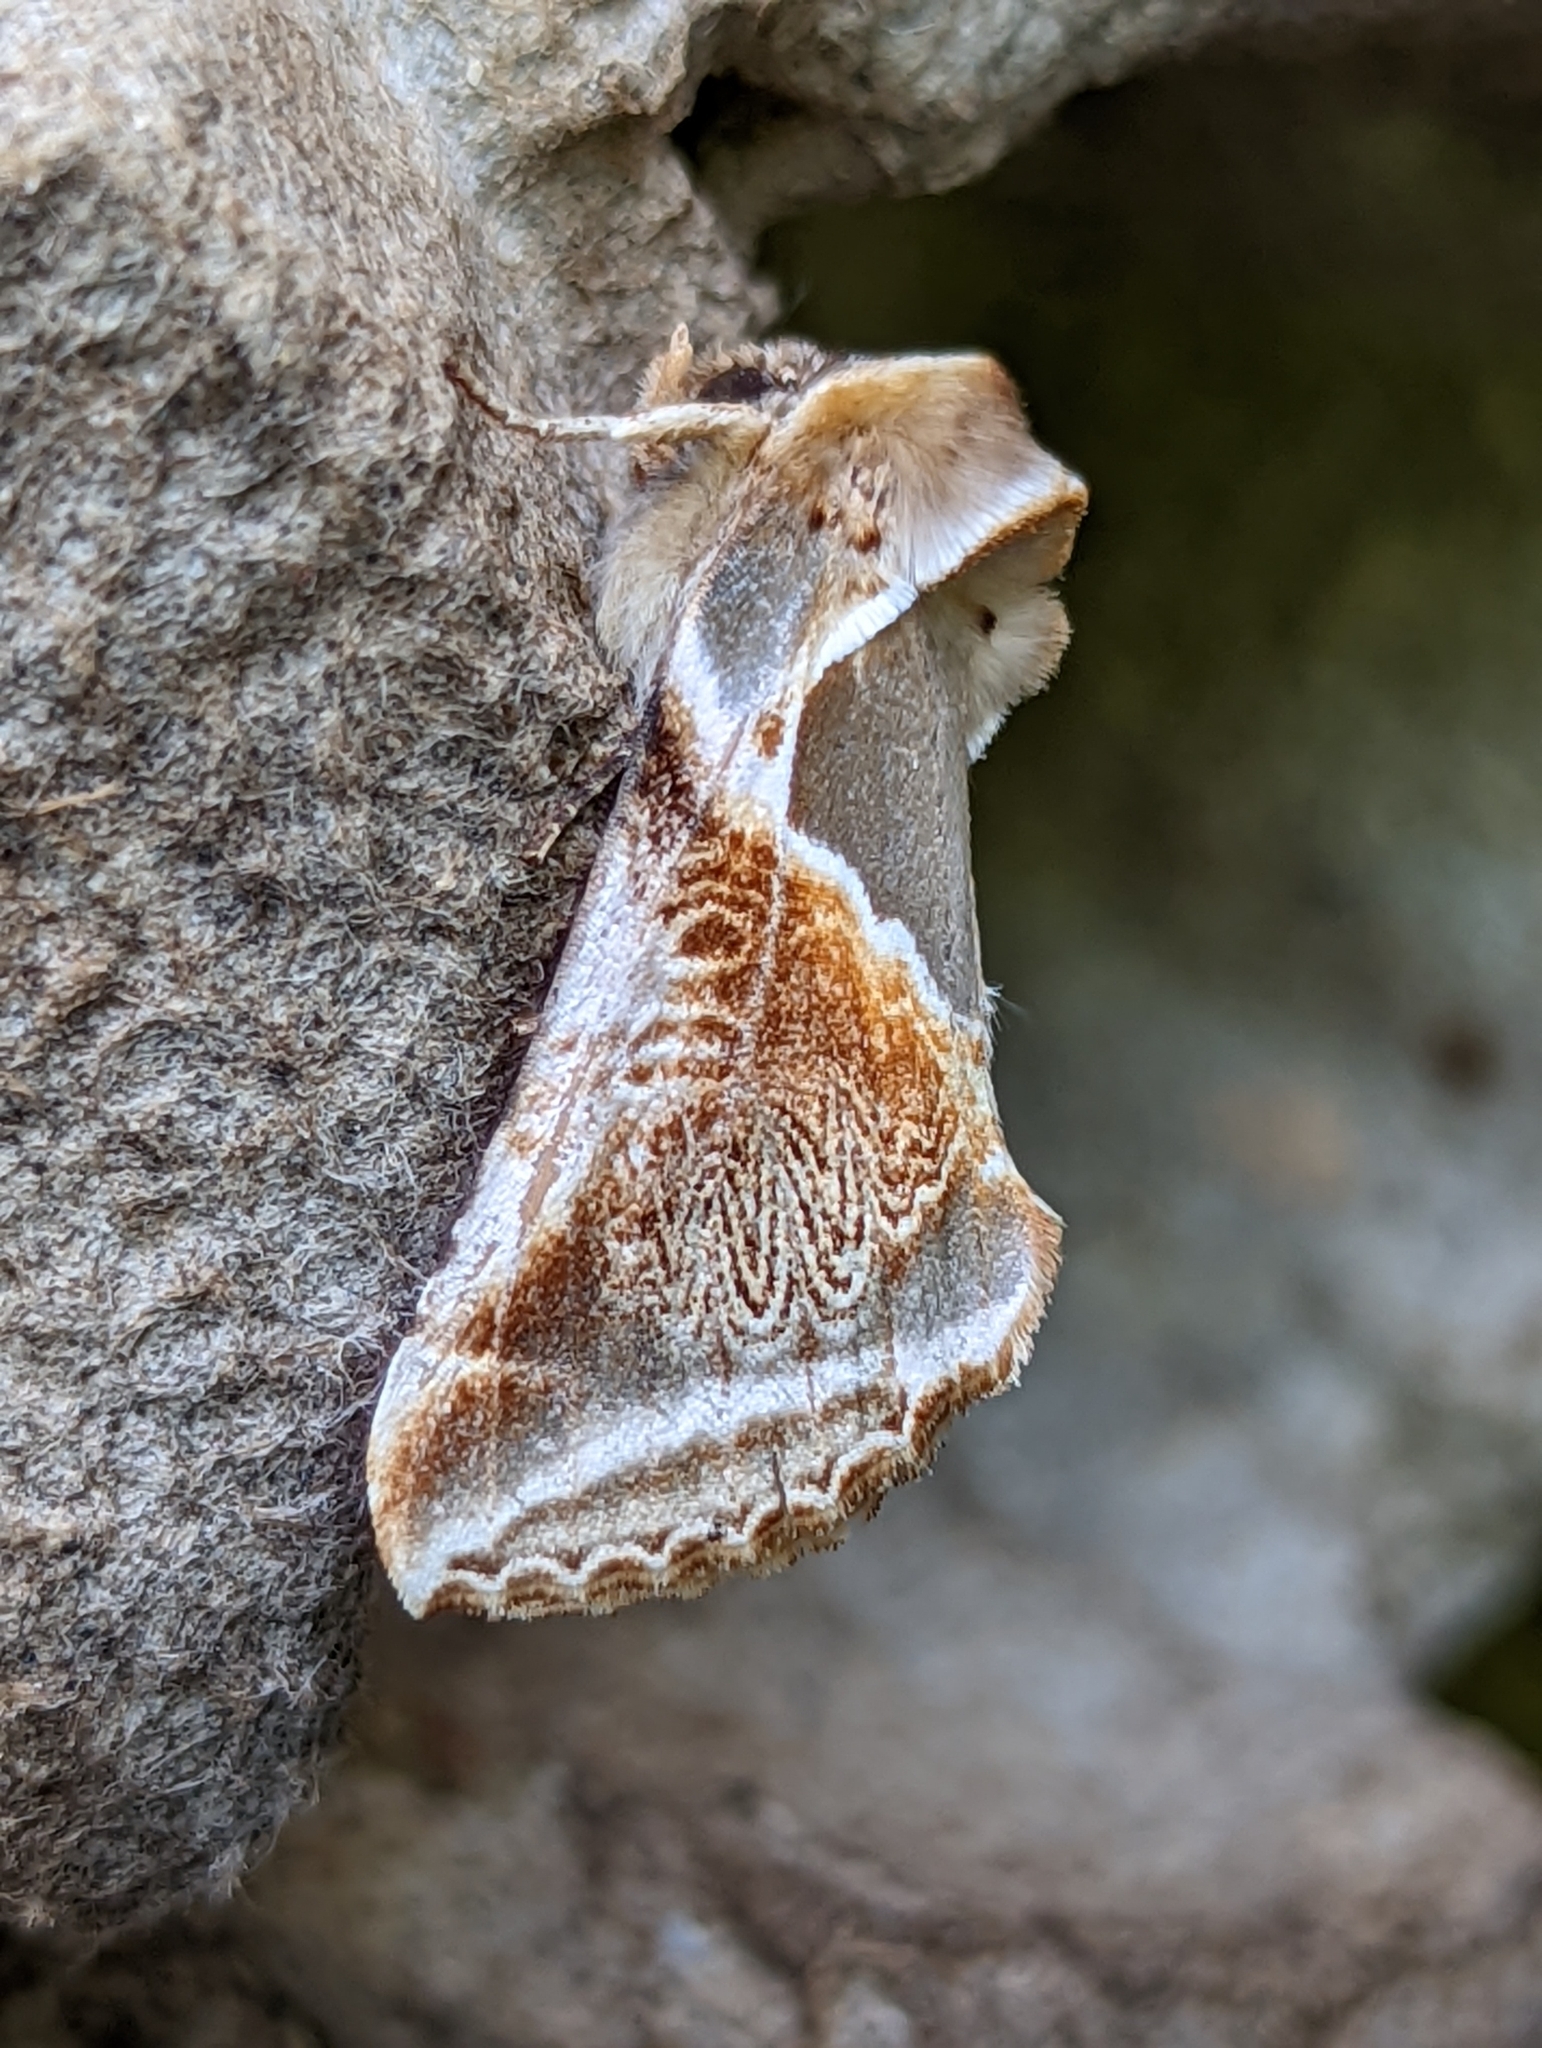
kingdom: Animalia
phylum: Arthropoda
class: Insecta
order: Lepidoptera
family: Drepanidae
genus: Habrosyne
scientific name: Habrosyne pyritoides
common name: Buff arches
